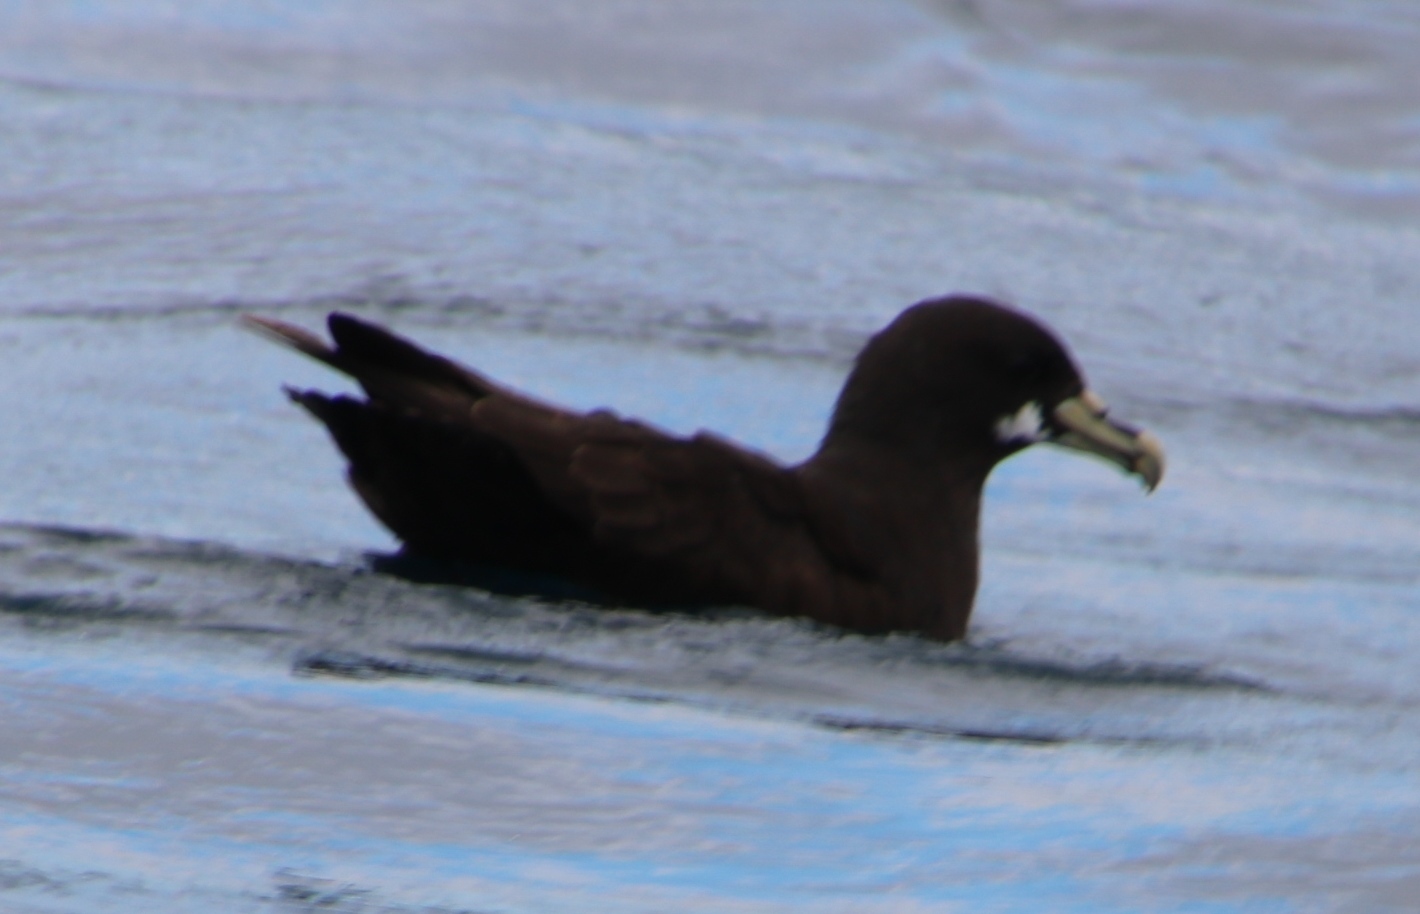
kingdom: Animalia
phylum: Chordata
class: Aves
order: Procellariiformes
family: Procellariidae
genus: Procellaria
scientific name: Procellaria aequinoctialis
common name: White-chinned petrel
